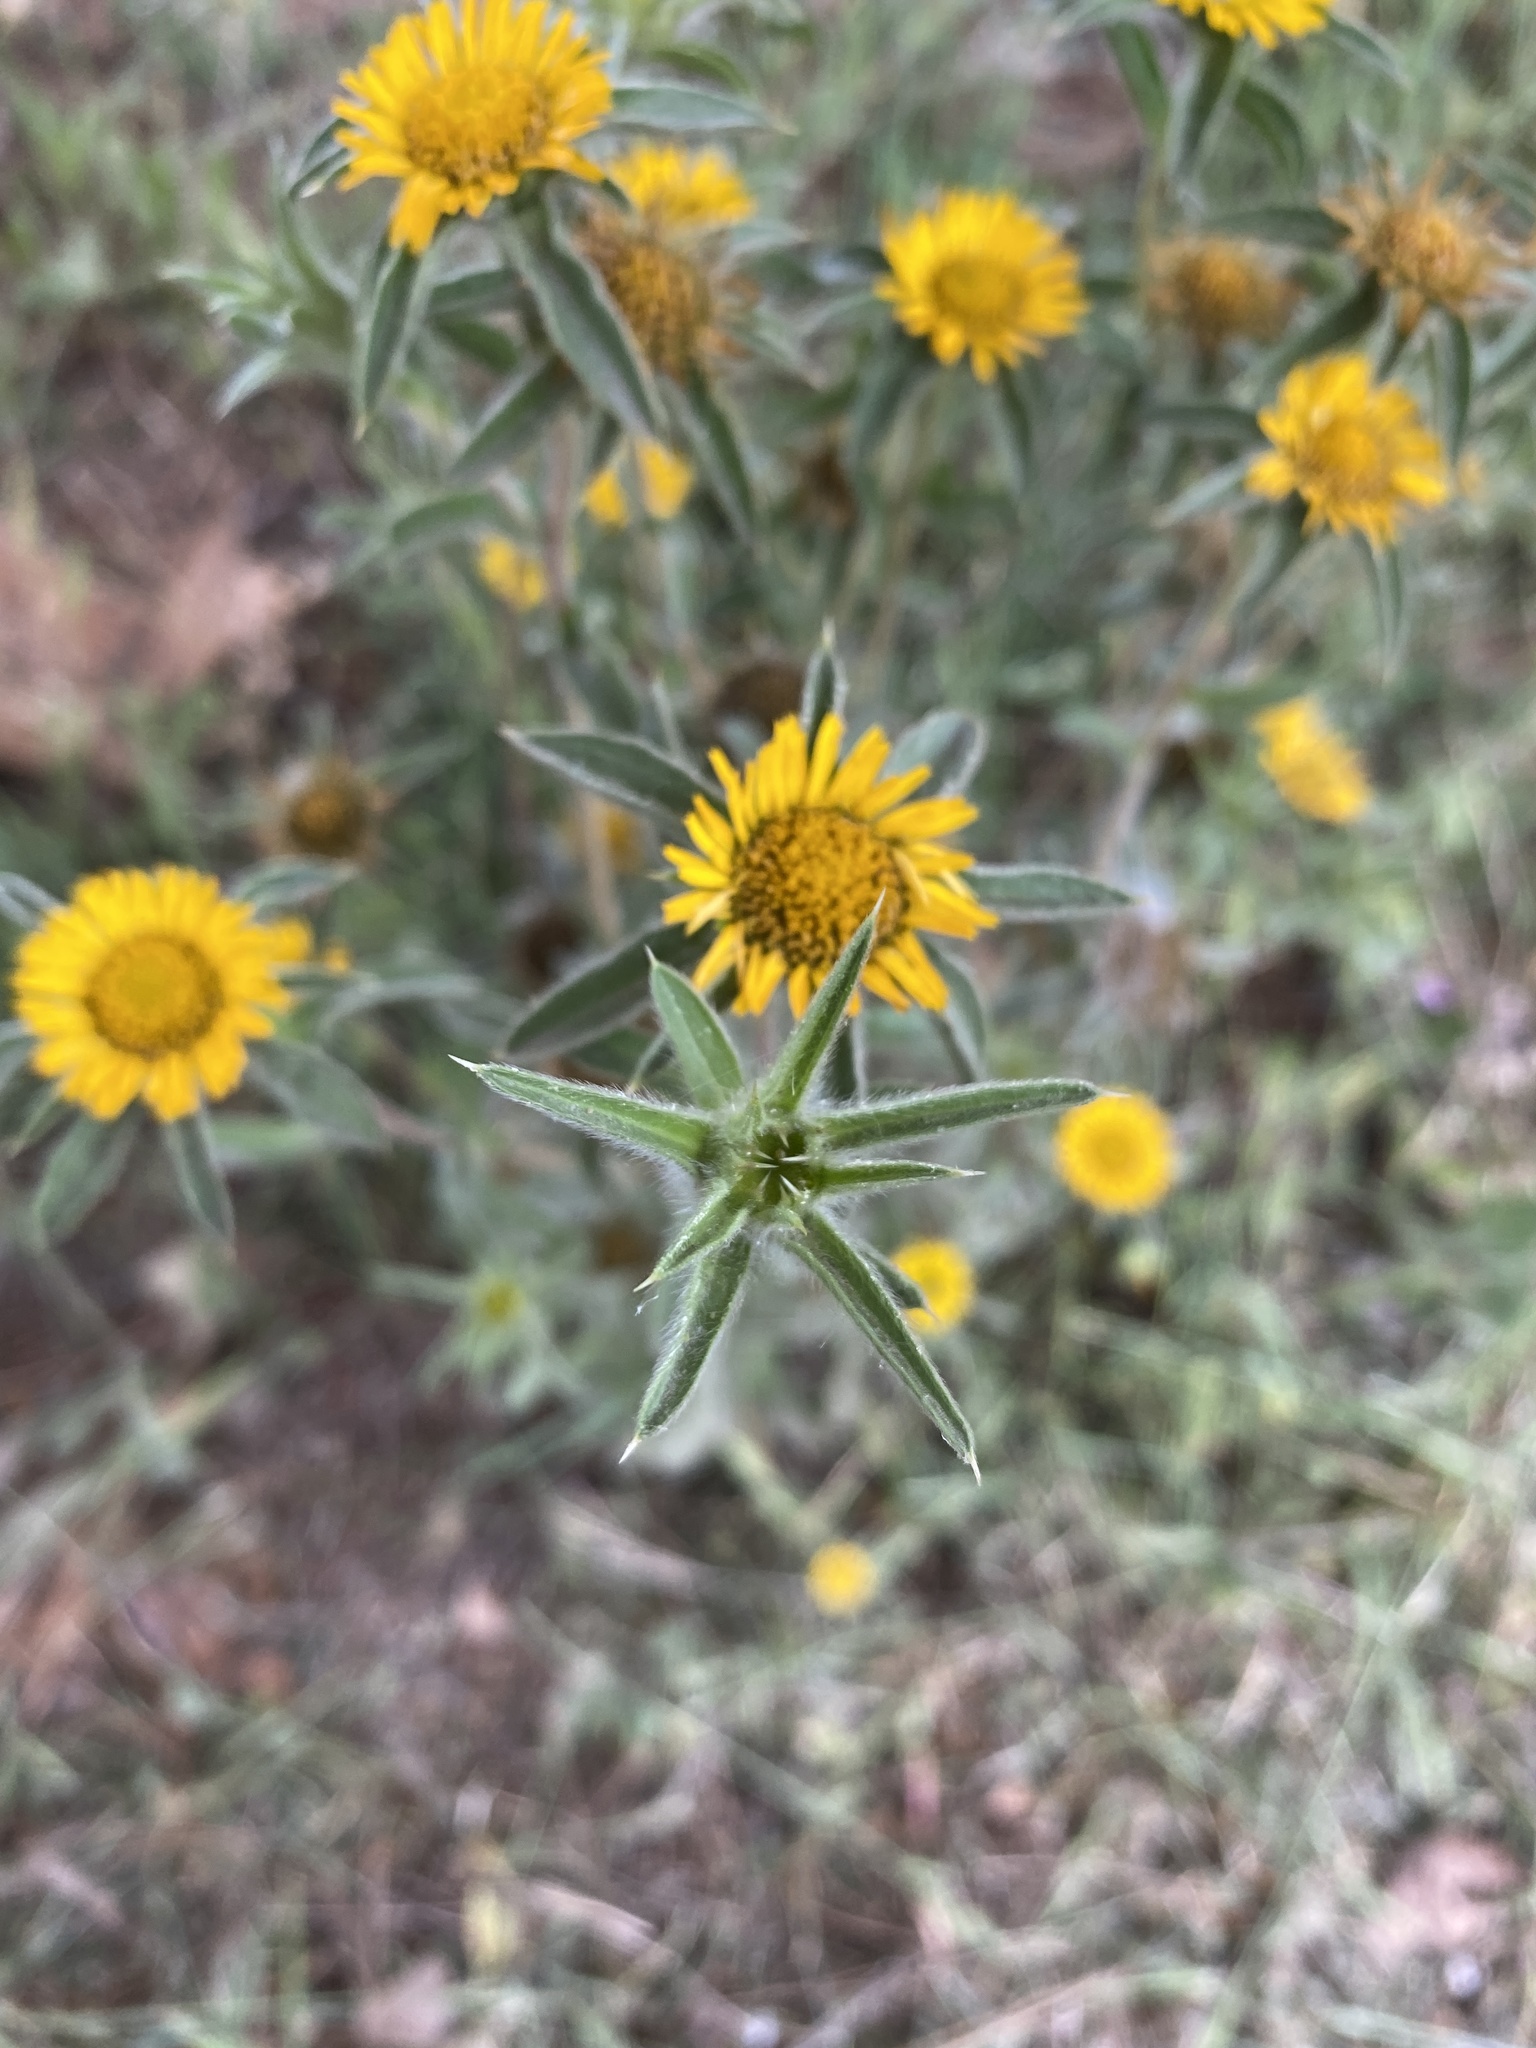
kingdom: Plantae
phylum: Tracheophyta
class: Magnoliopsida
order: Asterales
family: Asteraceae
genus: Pallenis
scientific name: Pallenis spinosa
